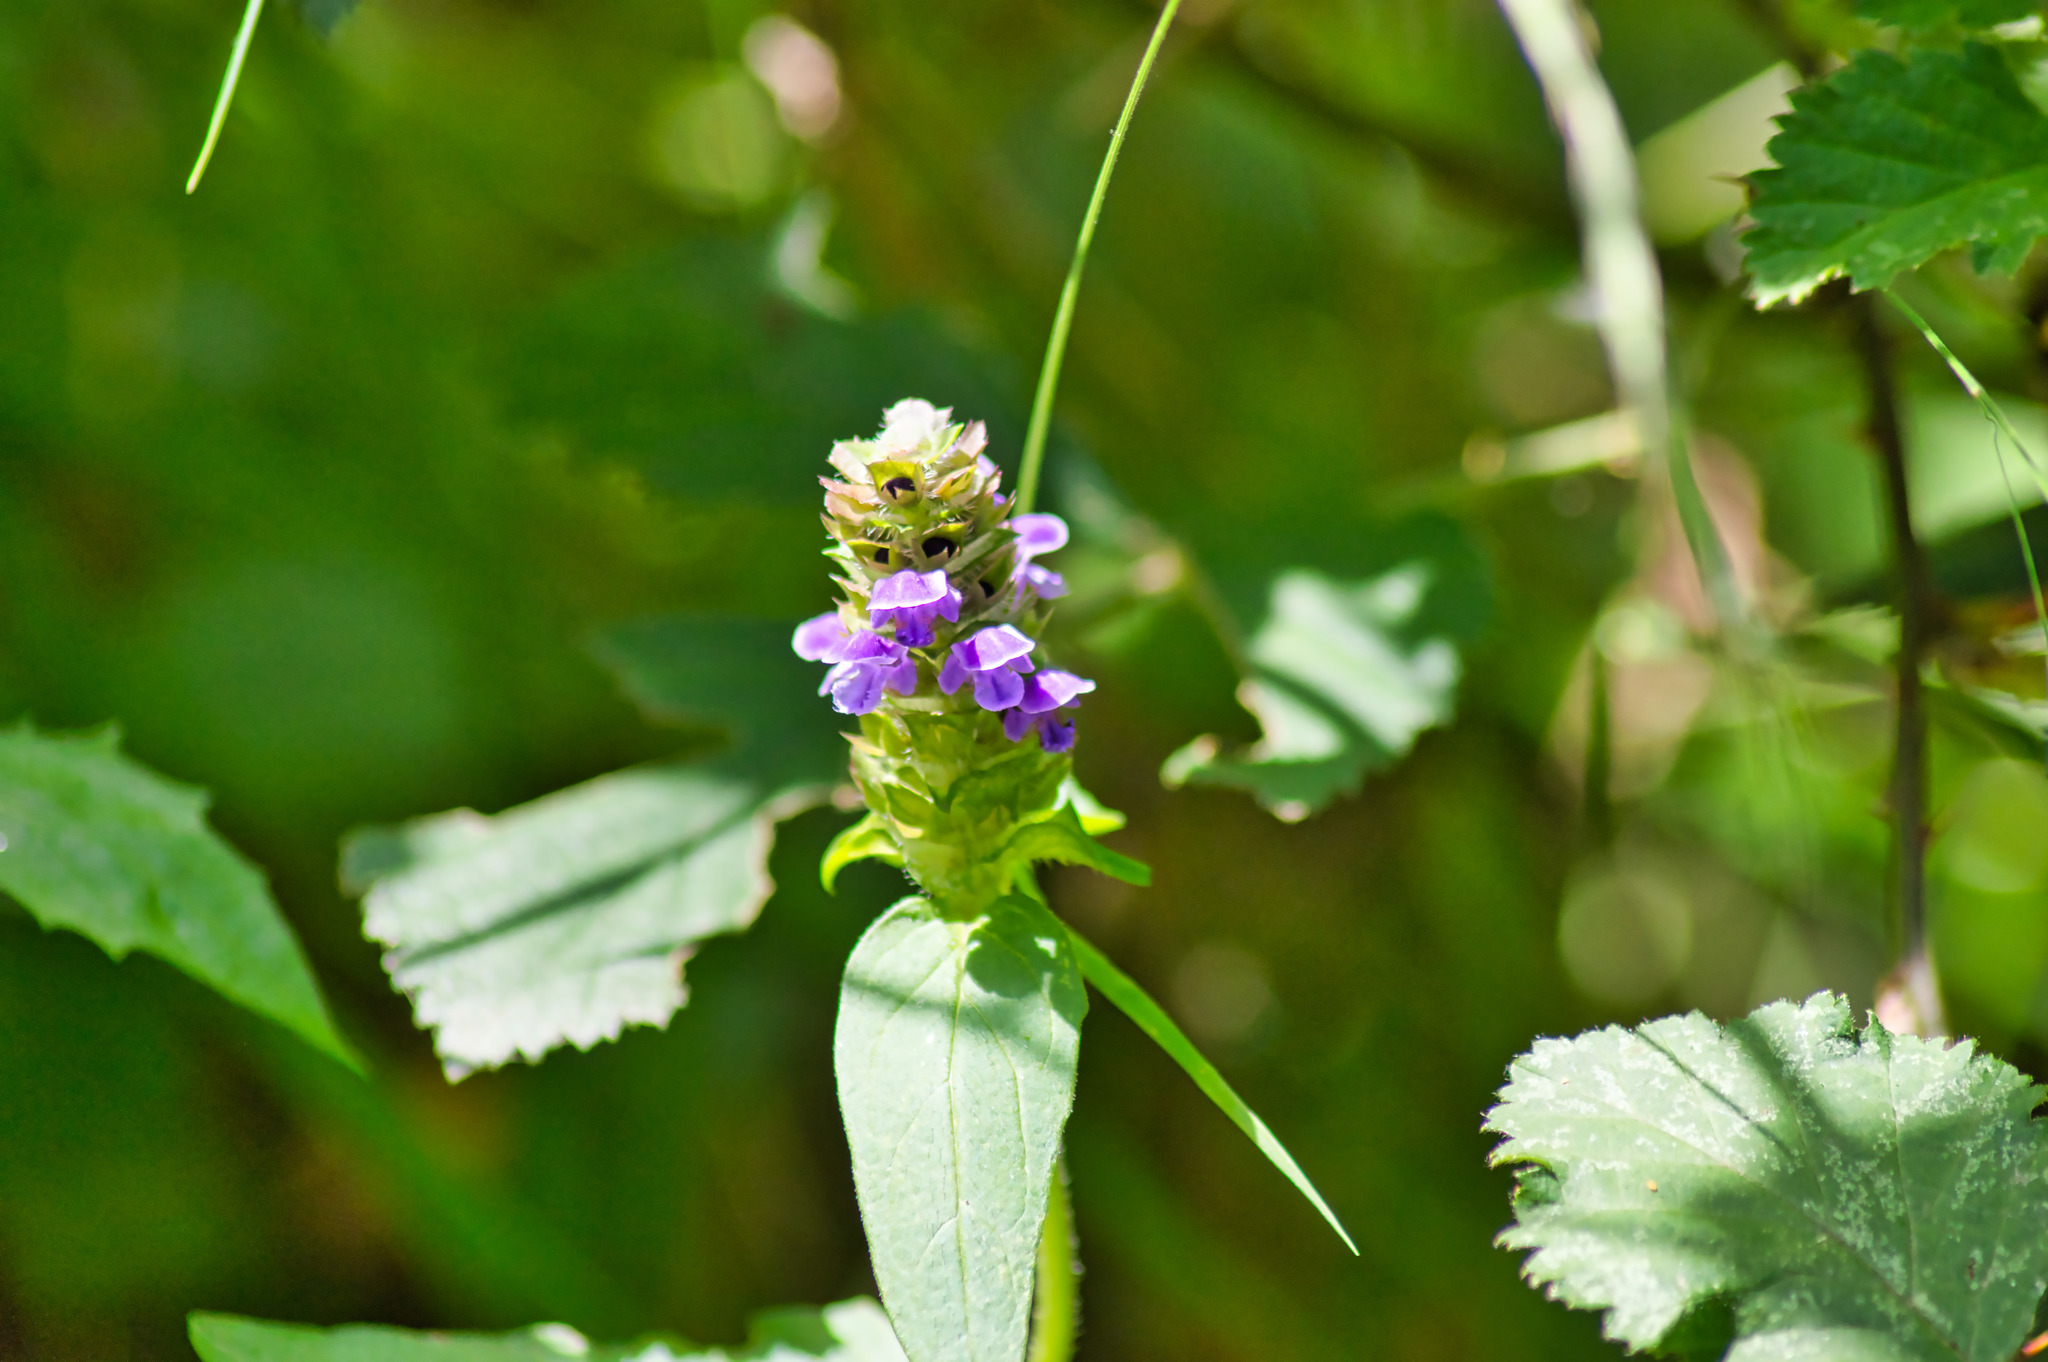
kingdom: Plantae
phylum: Tracheophyta
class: Magnoliopsida
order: Lamiales
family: Lamiaceae
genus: Prunella
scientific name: Prunella vulgaris
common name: Heal-all
